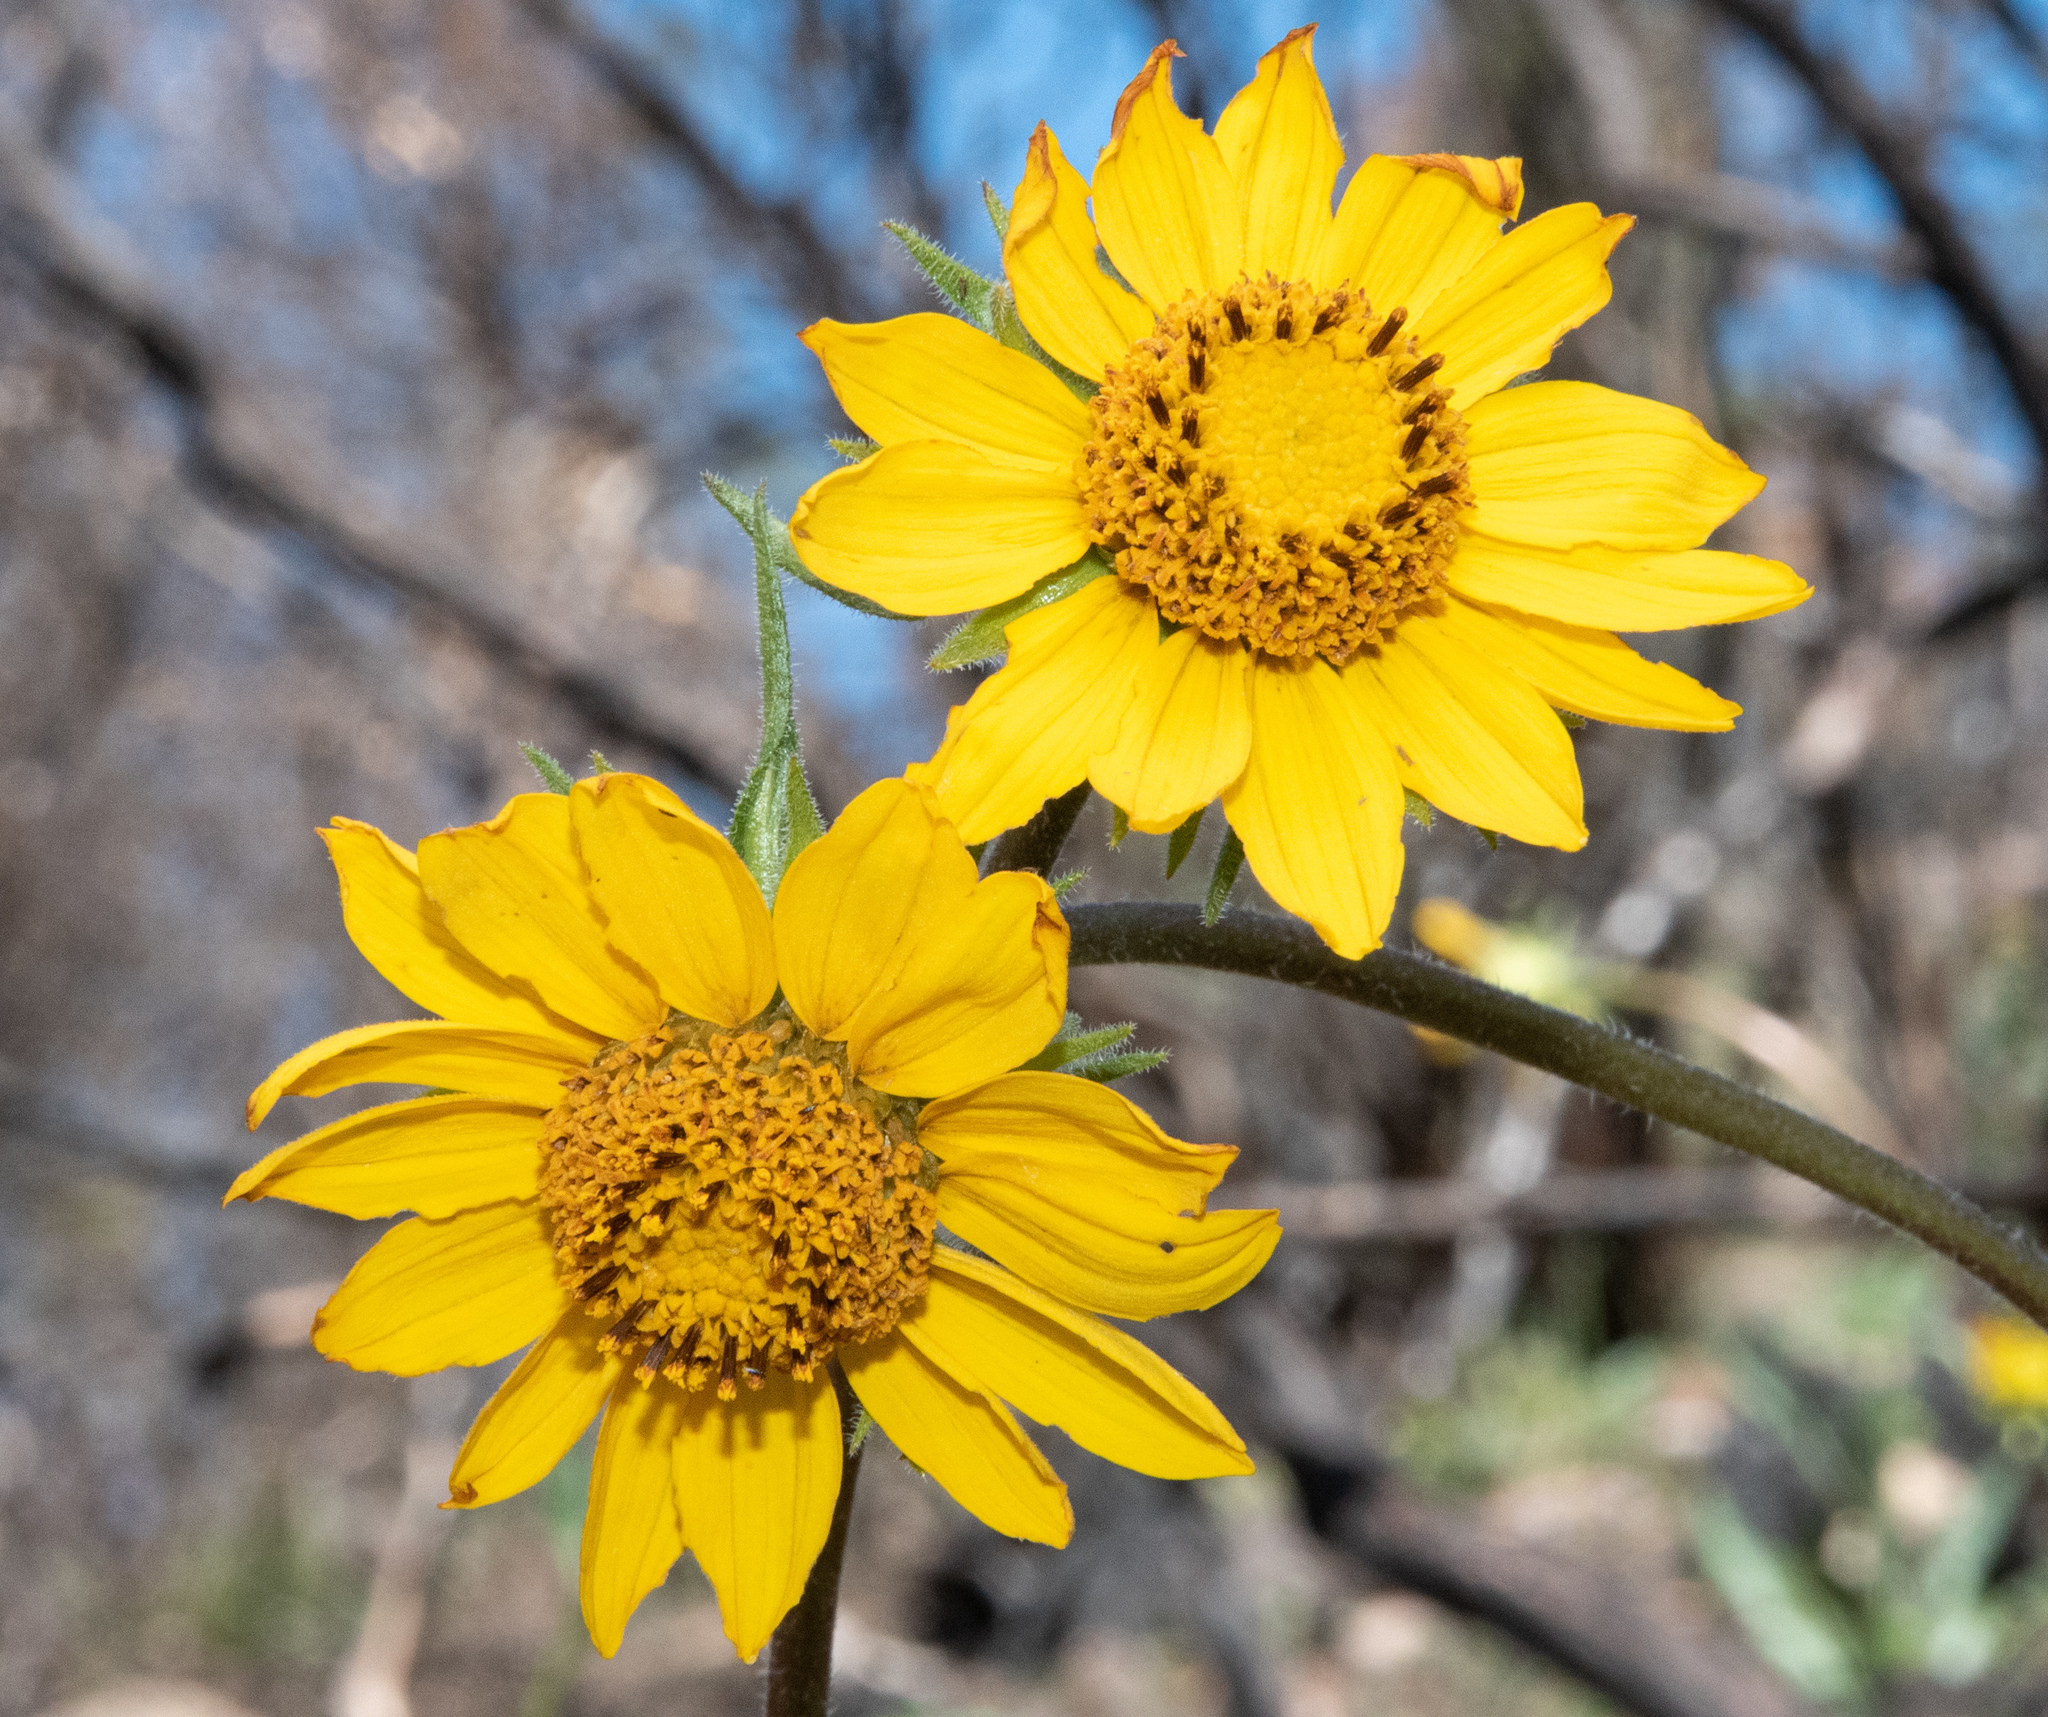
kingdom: Plantae
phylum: Tracheophyta
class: Magnoliopsida
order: Asterales
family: Asteraceae
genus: Helianthella
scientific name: Helianthella californica
